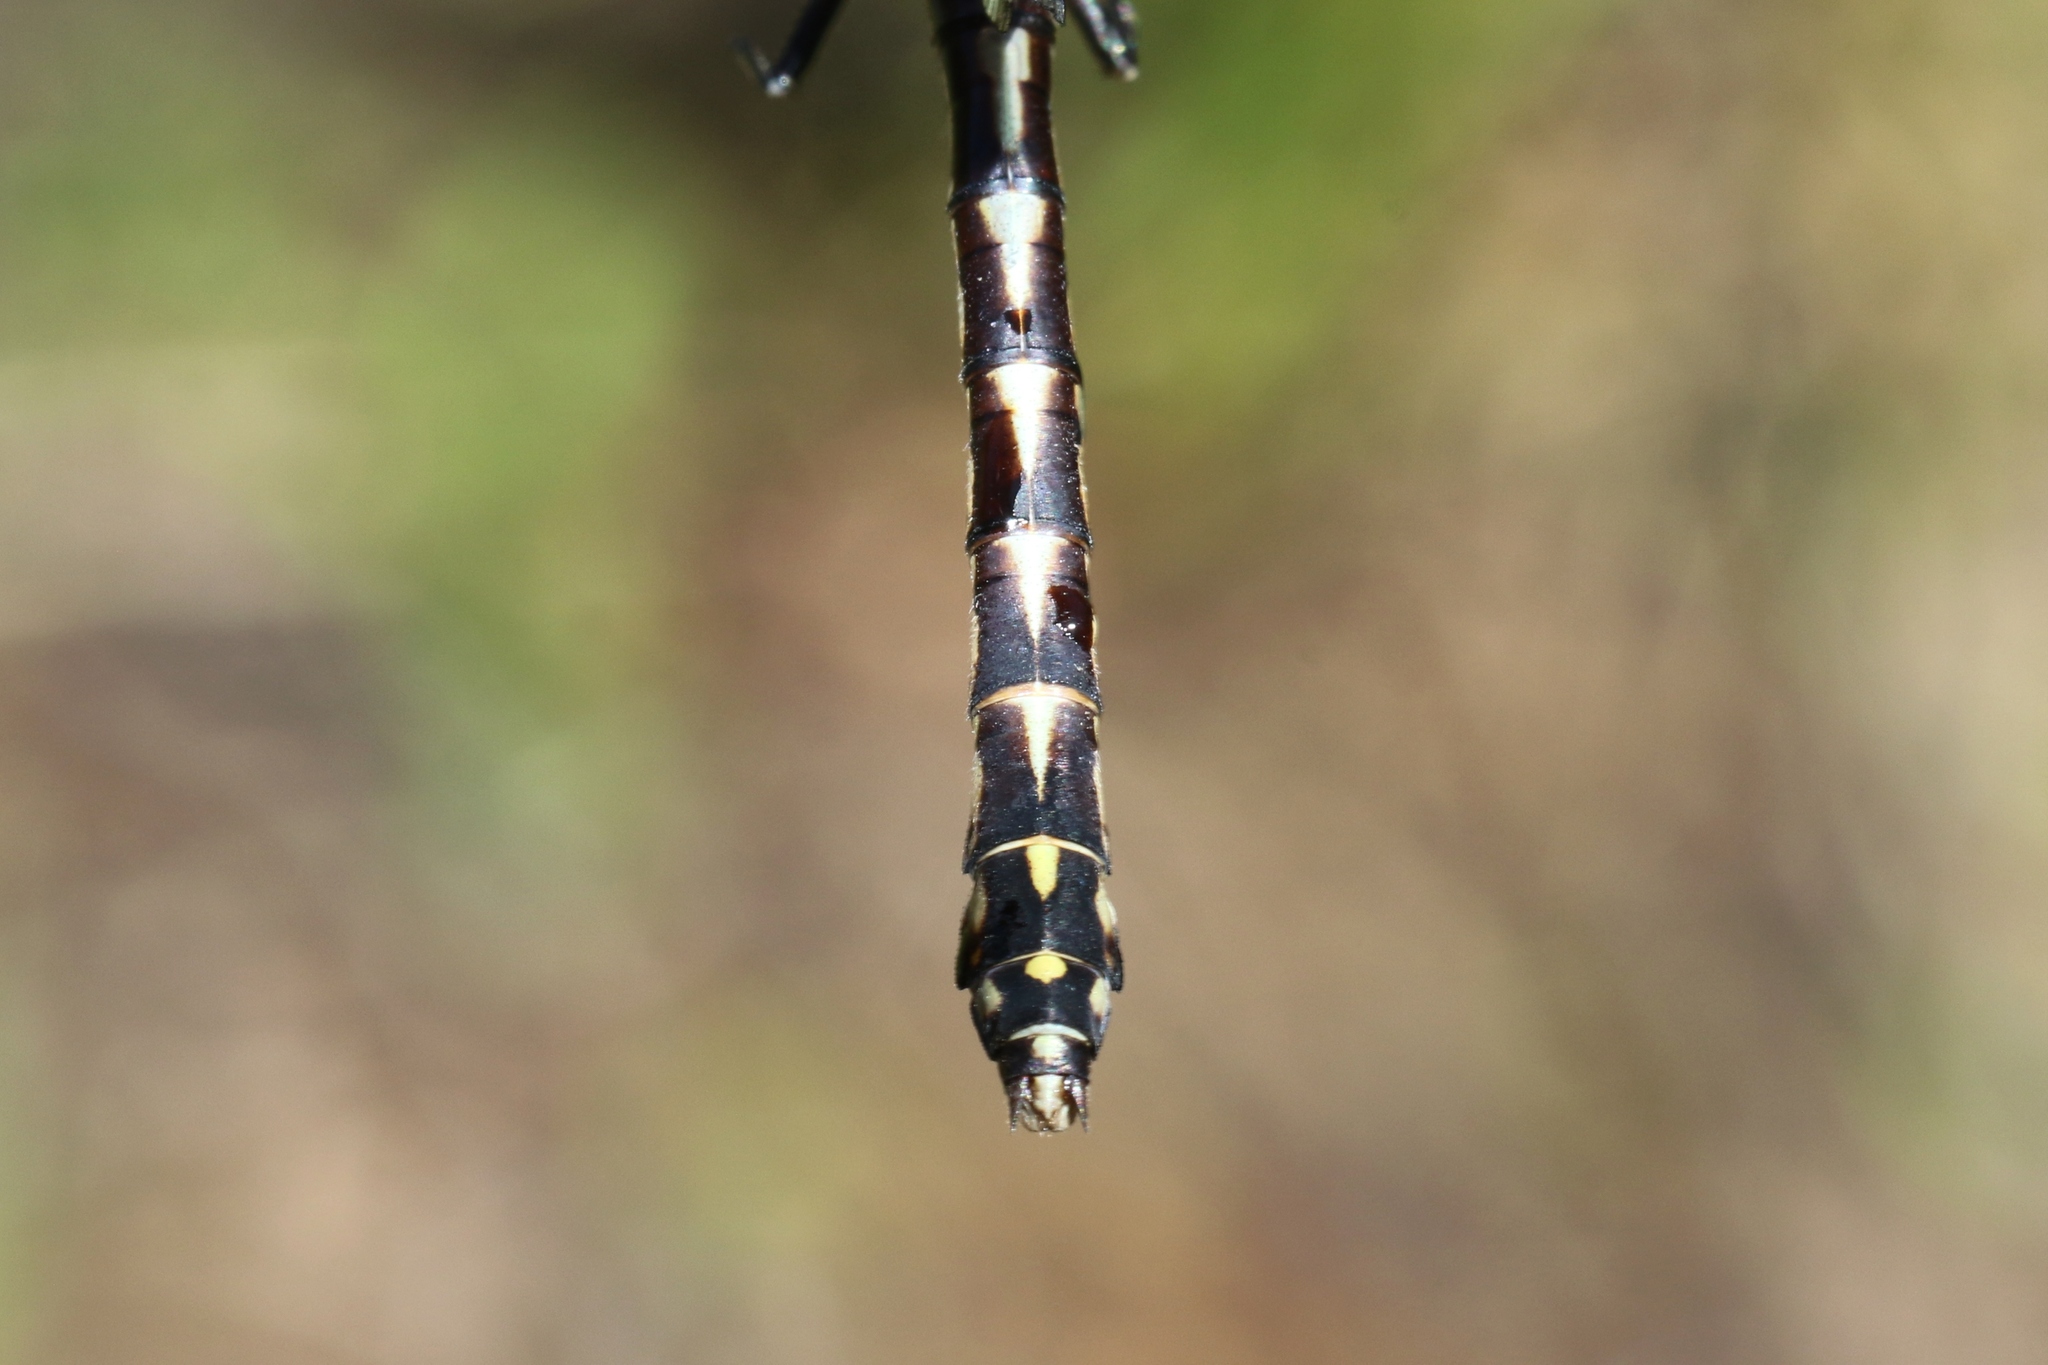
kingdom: Animalia
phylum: Arthropoda
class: Insecta
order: Odonata
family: Gomphidae
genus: Ophiogomphus
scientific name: Ophiogomphus aspersus
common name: Brook snaketail
